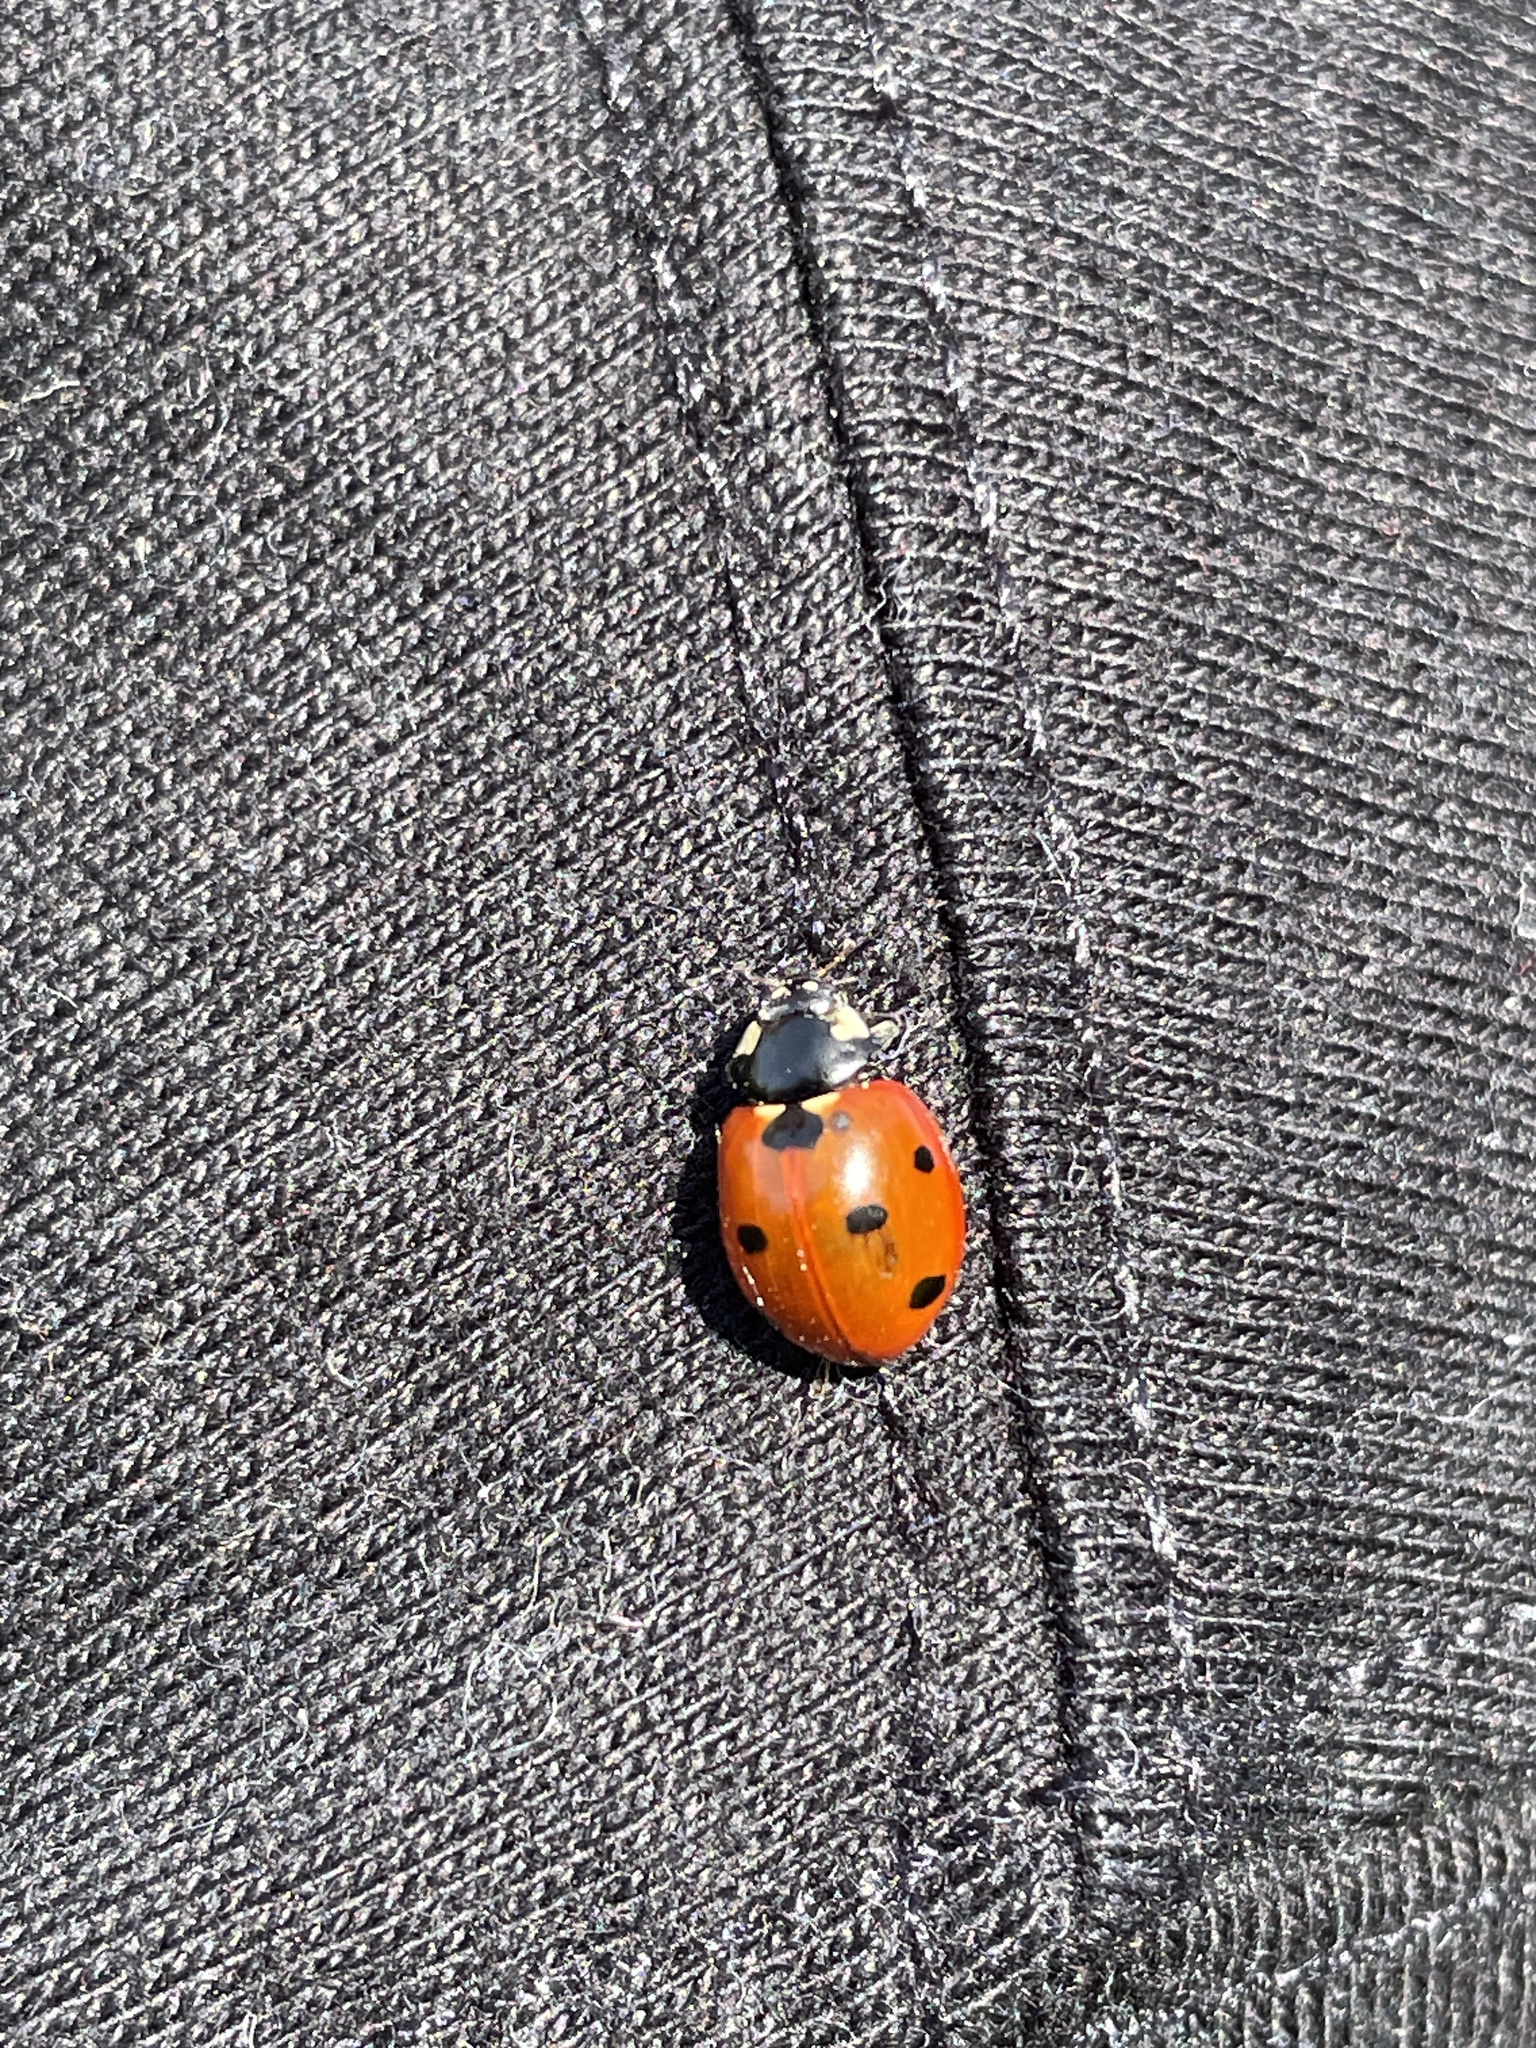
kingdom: Animalia
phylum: Arthropoda
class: Insecta
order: Coleoptera
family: Coccinellidae
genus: Coccinella
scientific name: Coccinella septempunctata
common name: Sevenspotted lady beetle
